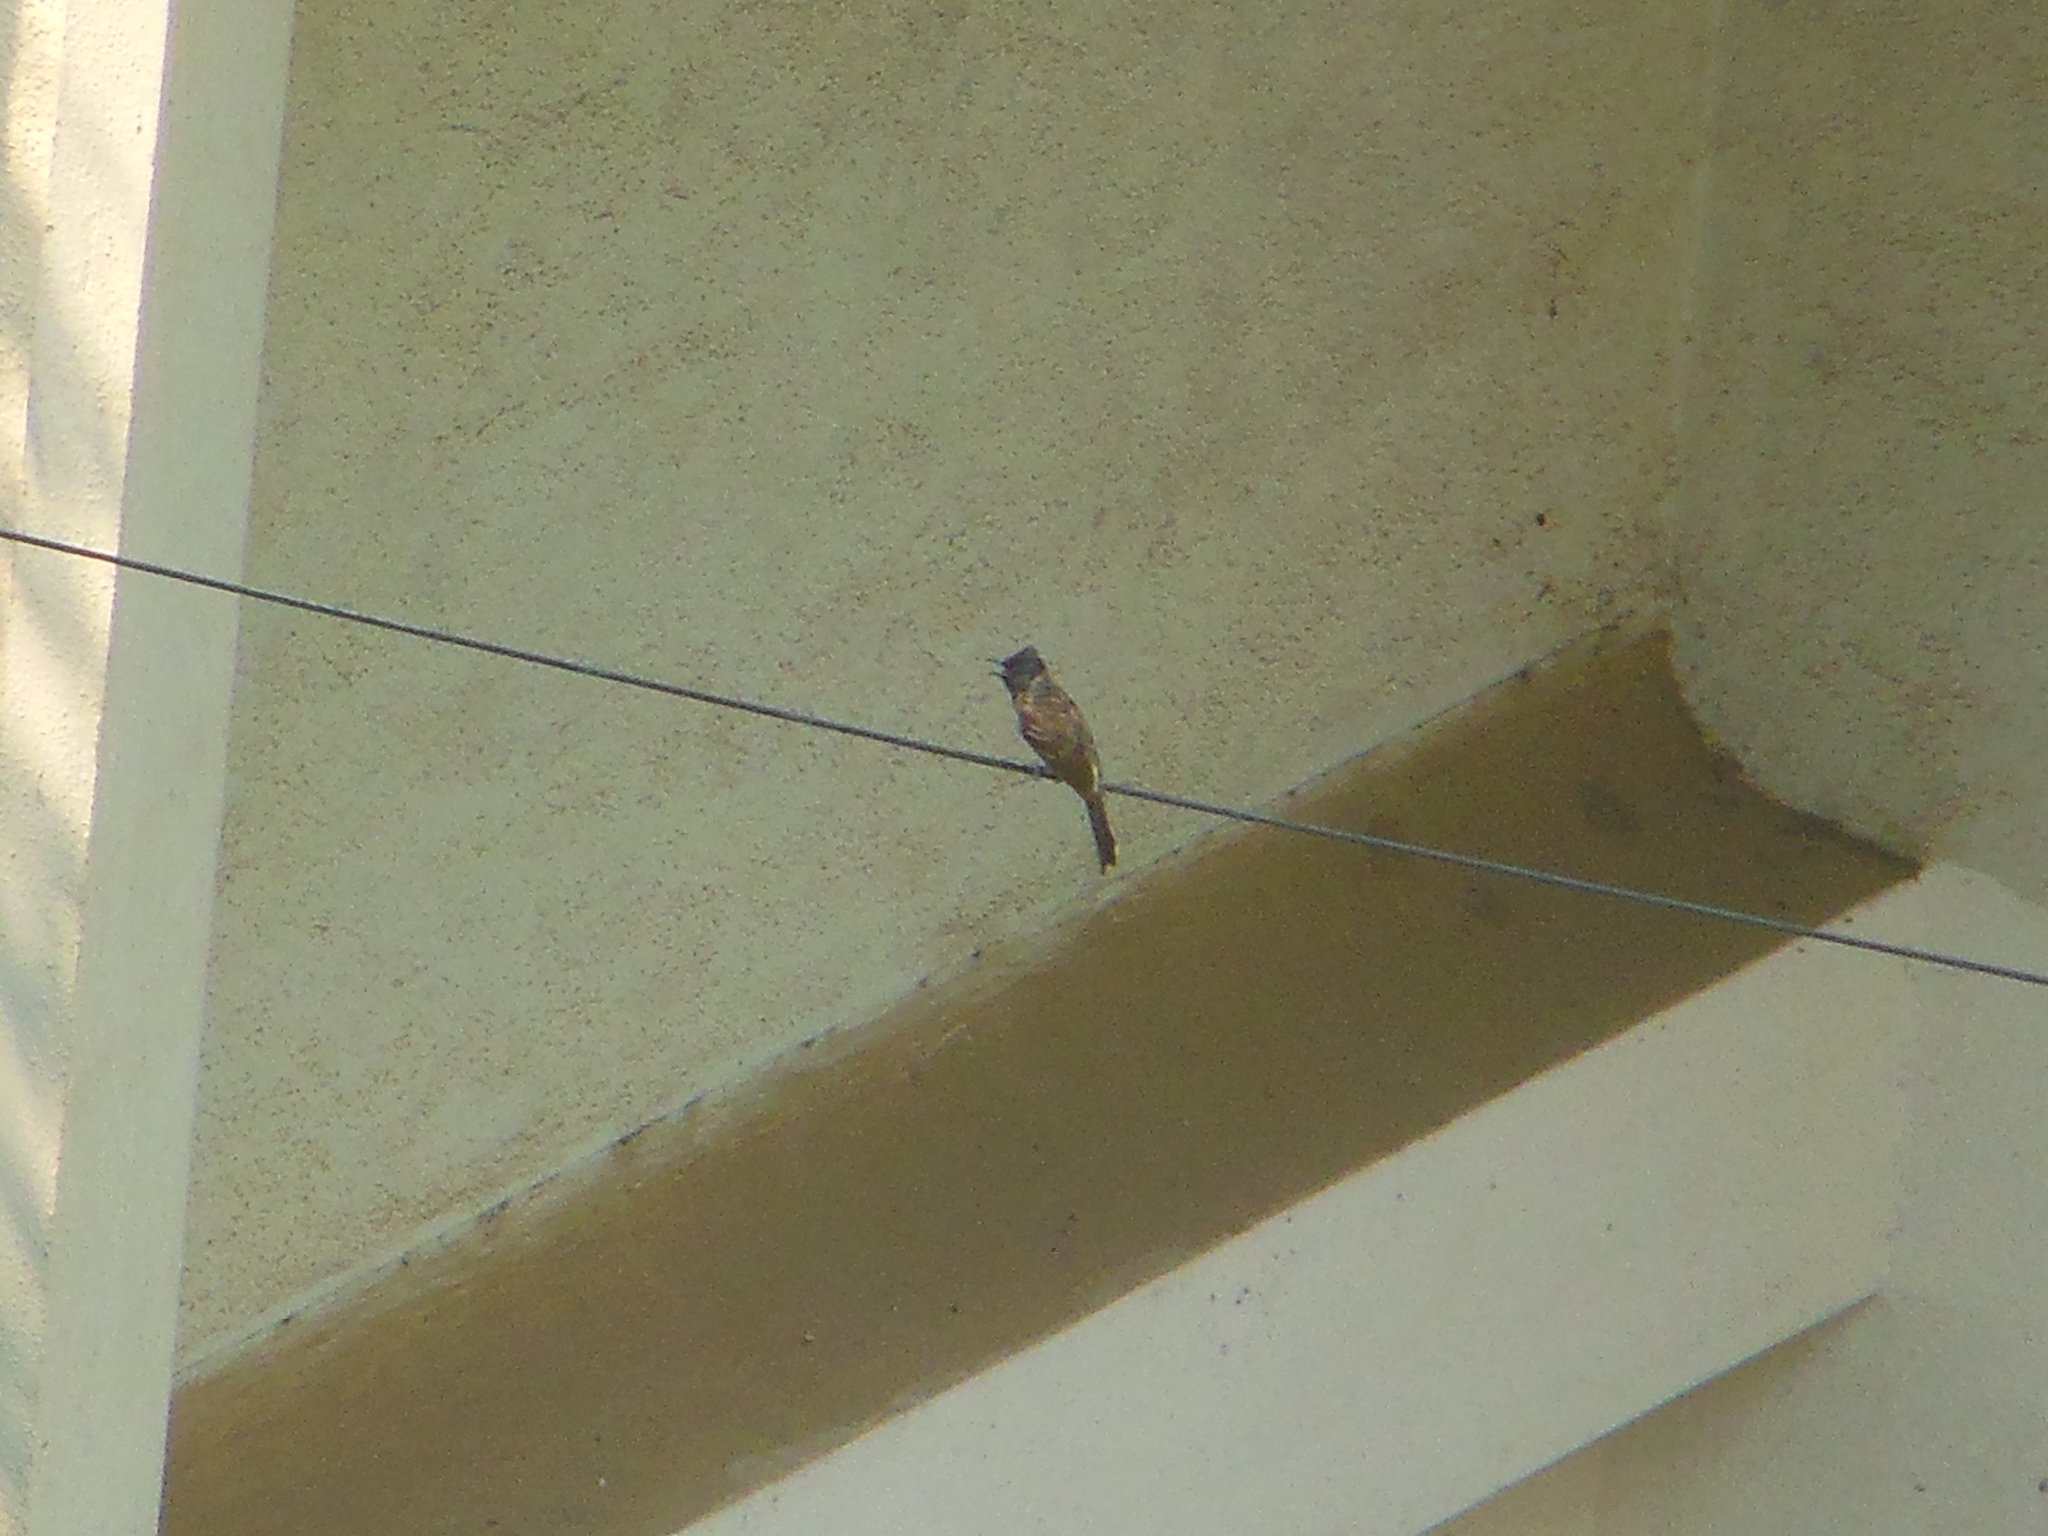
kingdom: Animalia
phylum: Chordata
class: Aves
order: Passeriformes
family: Pycnonotidae
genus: Pycnonotus
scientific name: Pycnonotus cafer
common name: Red-vented bulbul
